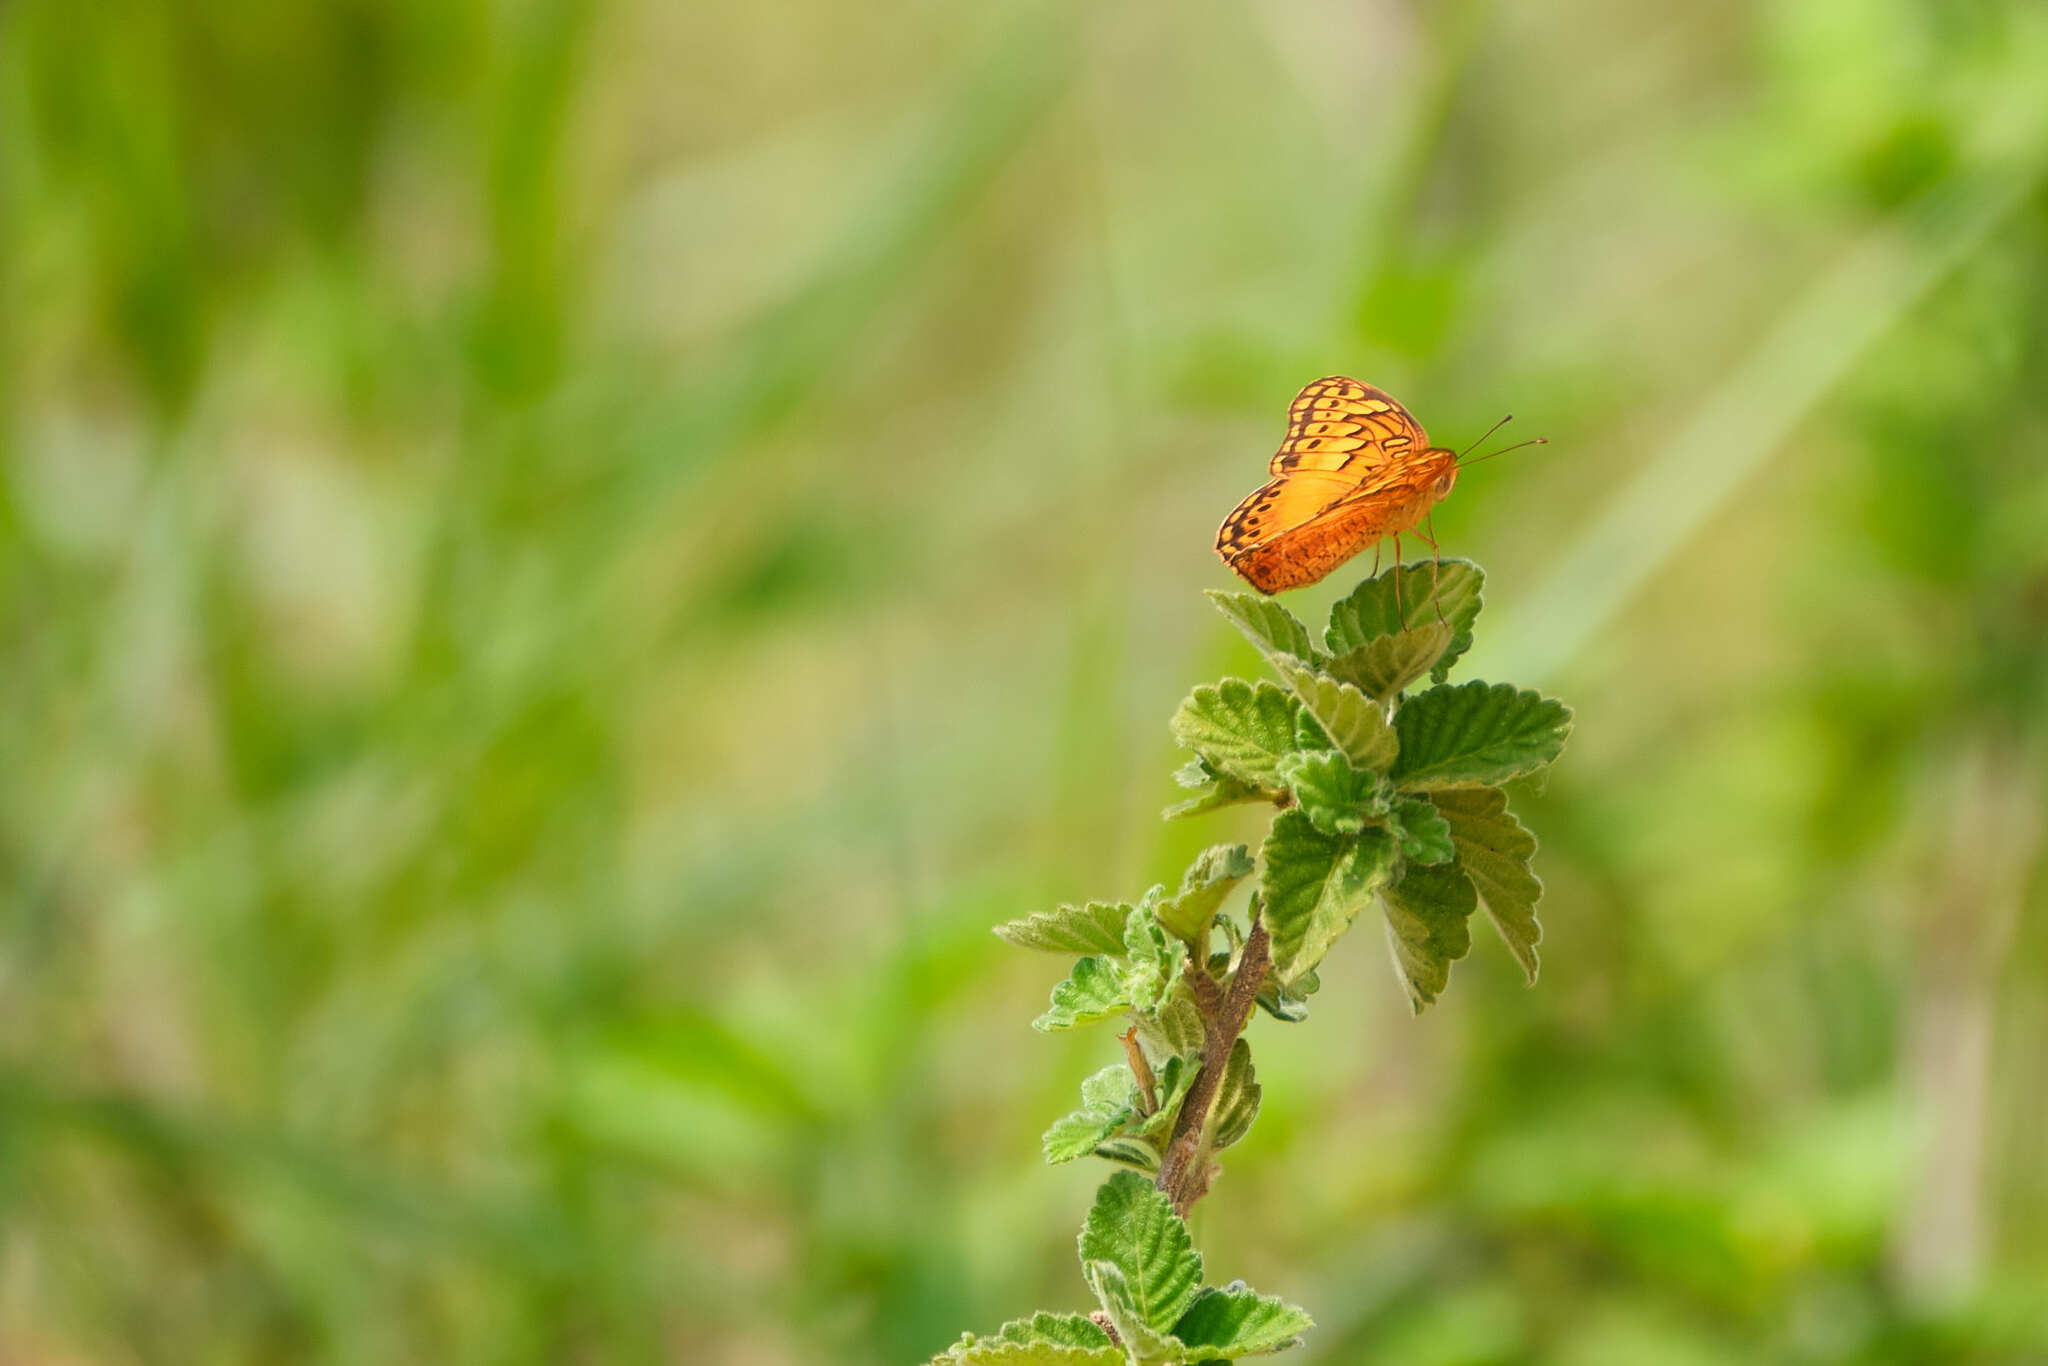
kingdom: Animalia
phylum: Arthropoda
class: Insecta
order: Lepidoptera
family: Nymphalidae
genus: Euptoieta
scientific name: Euptoieta hegesia
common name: Mexican fritillary
